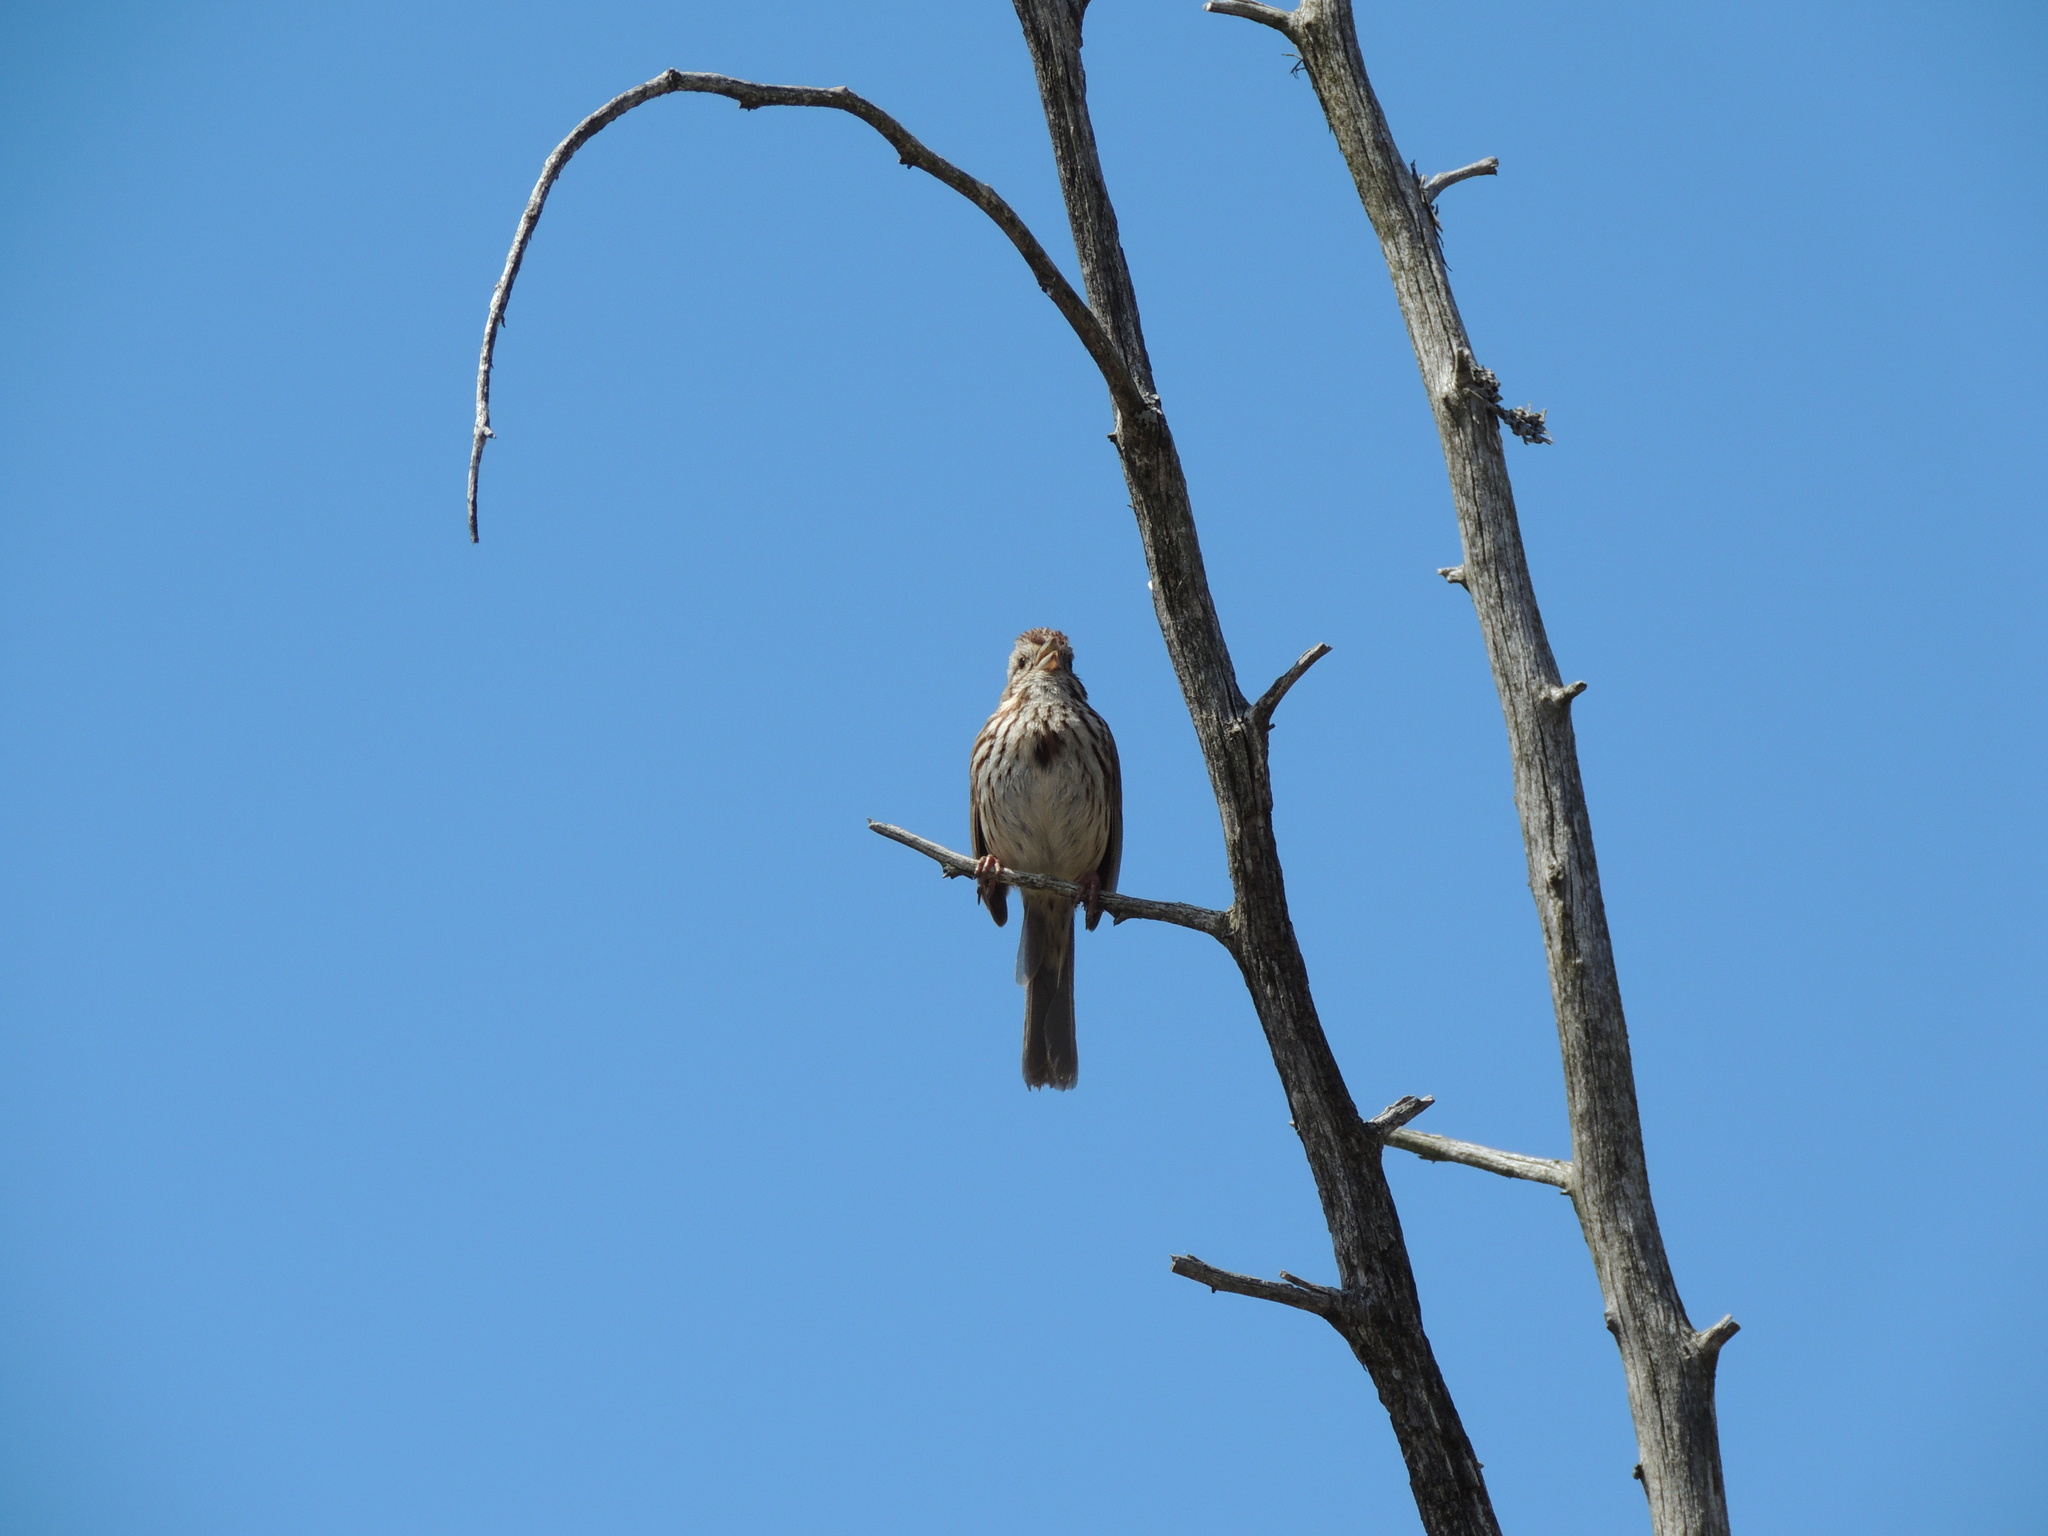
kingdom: Animalia
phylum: Chordata
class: Aves
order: Passeriformes
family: Passerellidae
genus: Melospiza
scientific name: Melospiza melodia
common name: Song sparrow
